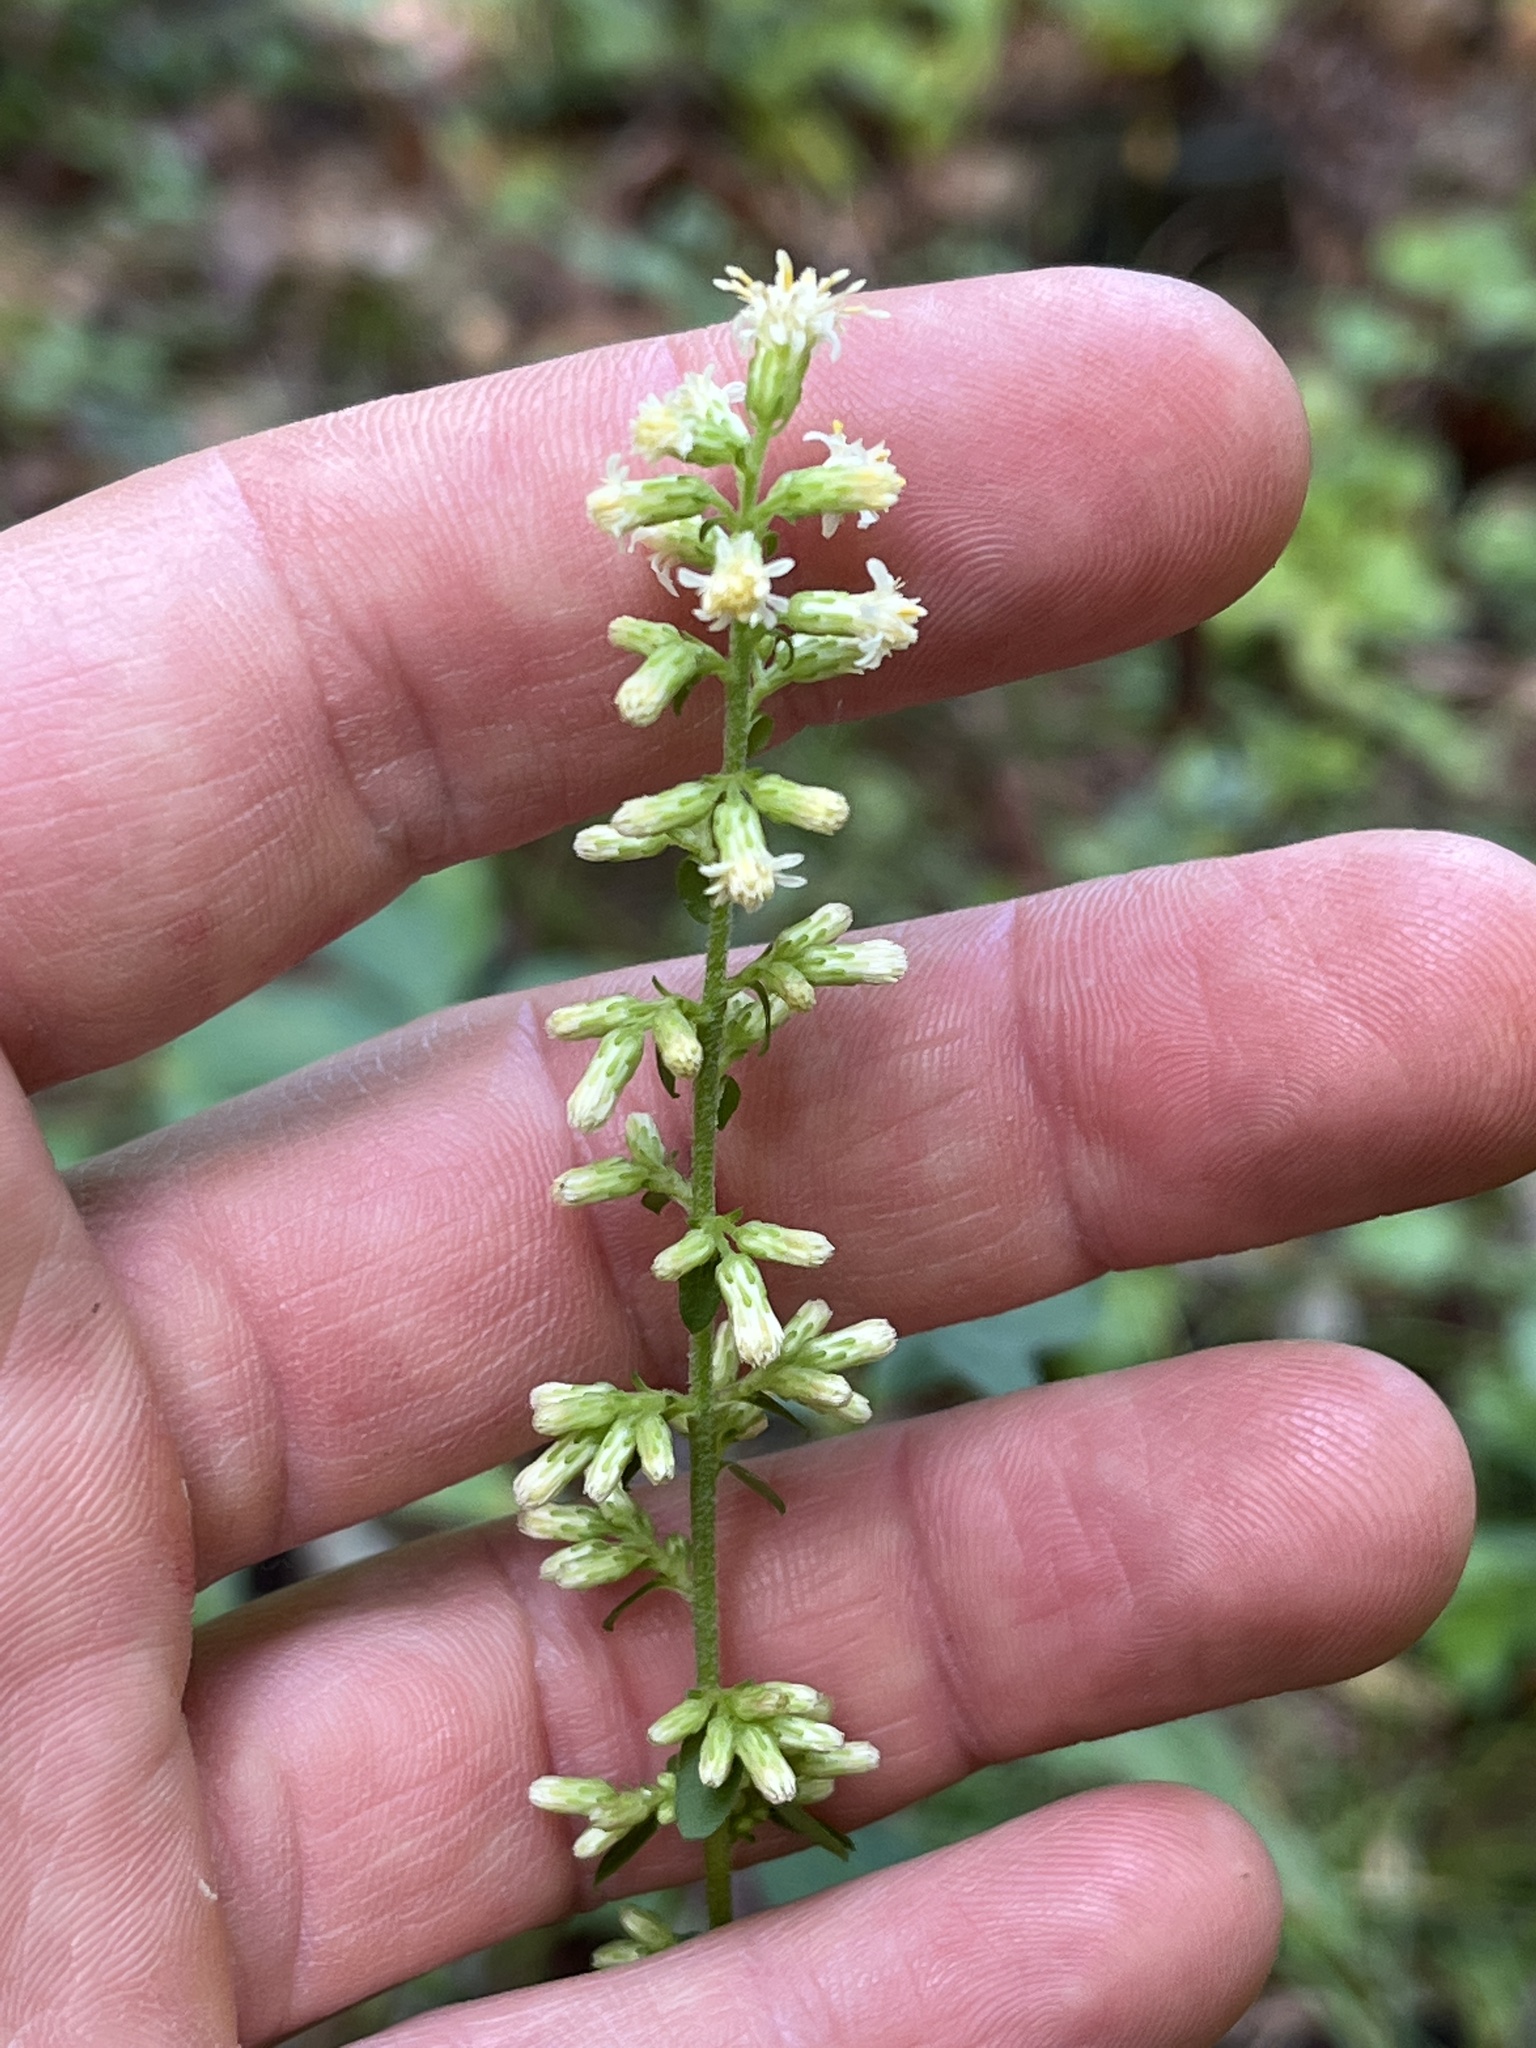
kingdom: Plantae
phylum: Tracheophyta
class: Magnoliopsida
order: Asterales
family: Asteraceae
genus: Solidago
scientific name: Solidago bicolor
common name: Silverrod
